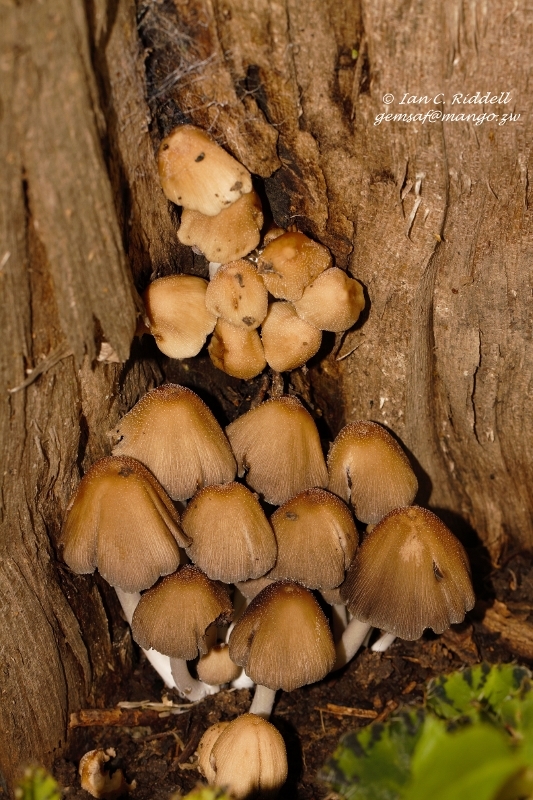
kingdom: Fungi
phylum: Basidiomycota
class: Agaricomycetes
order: Agaricales
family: Psathyrellaceae
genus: Coprinellus
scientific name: Coprinellus micaceus
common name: Glistening ink-cap
